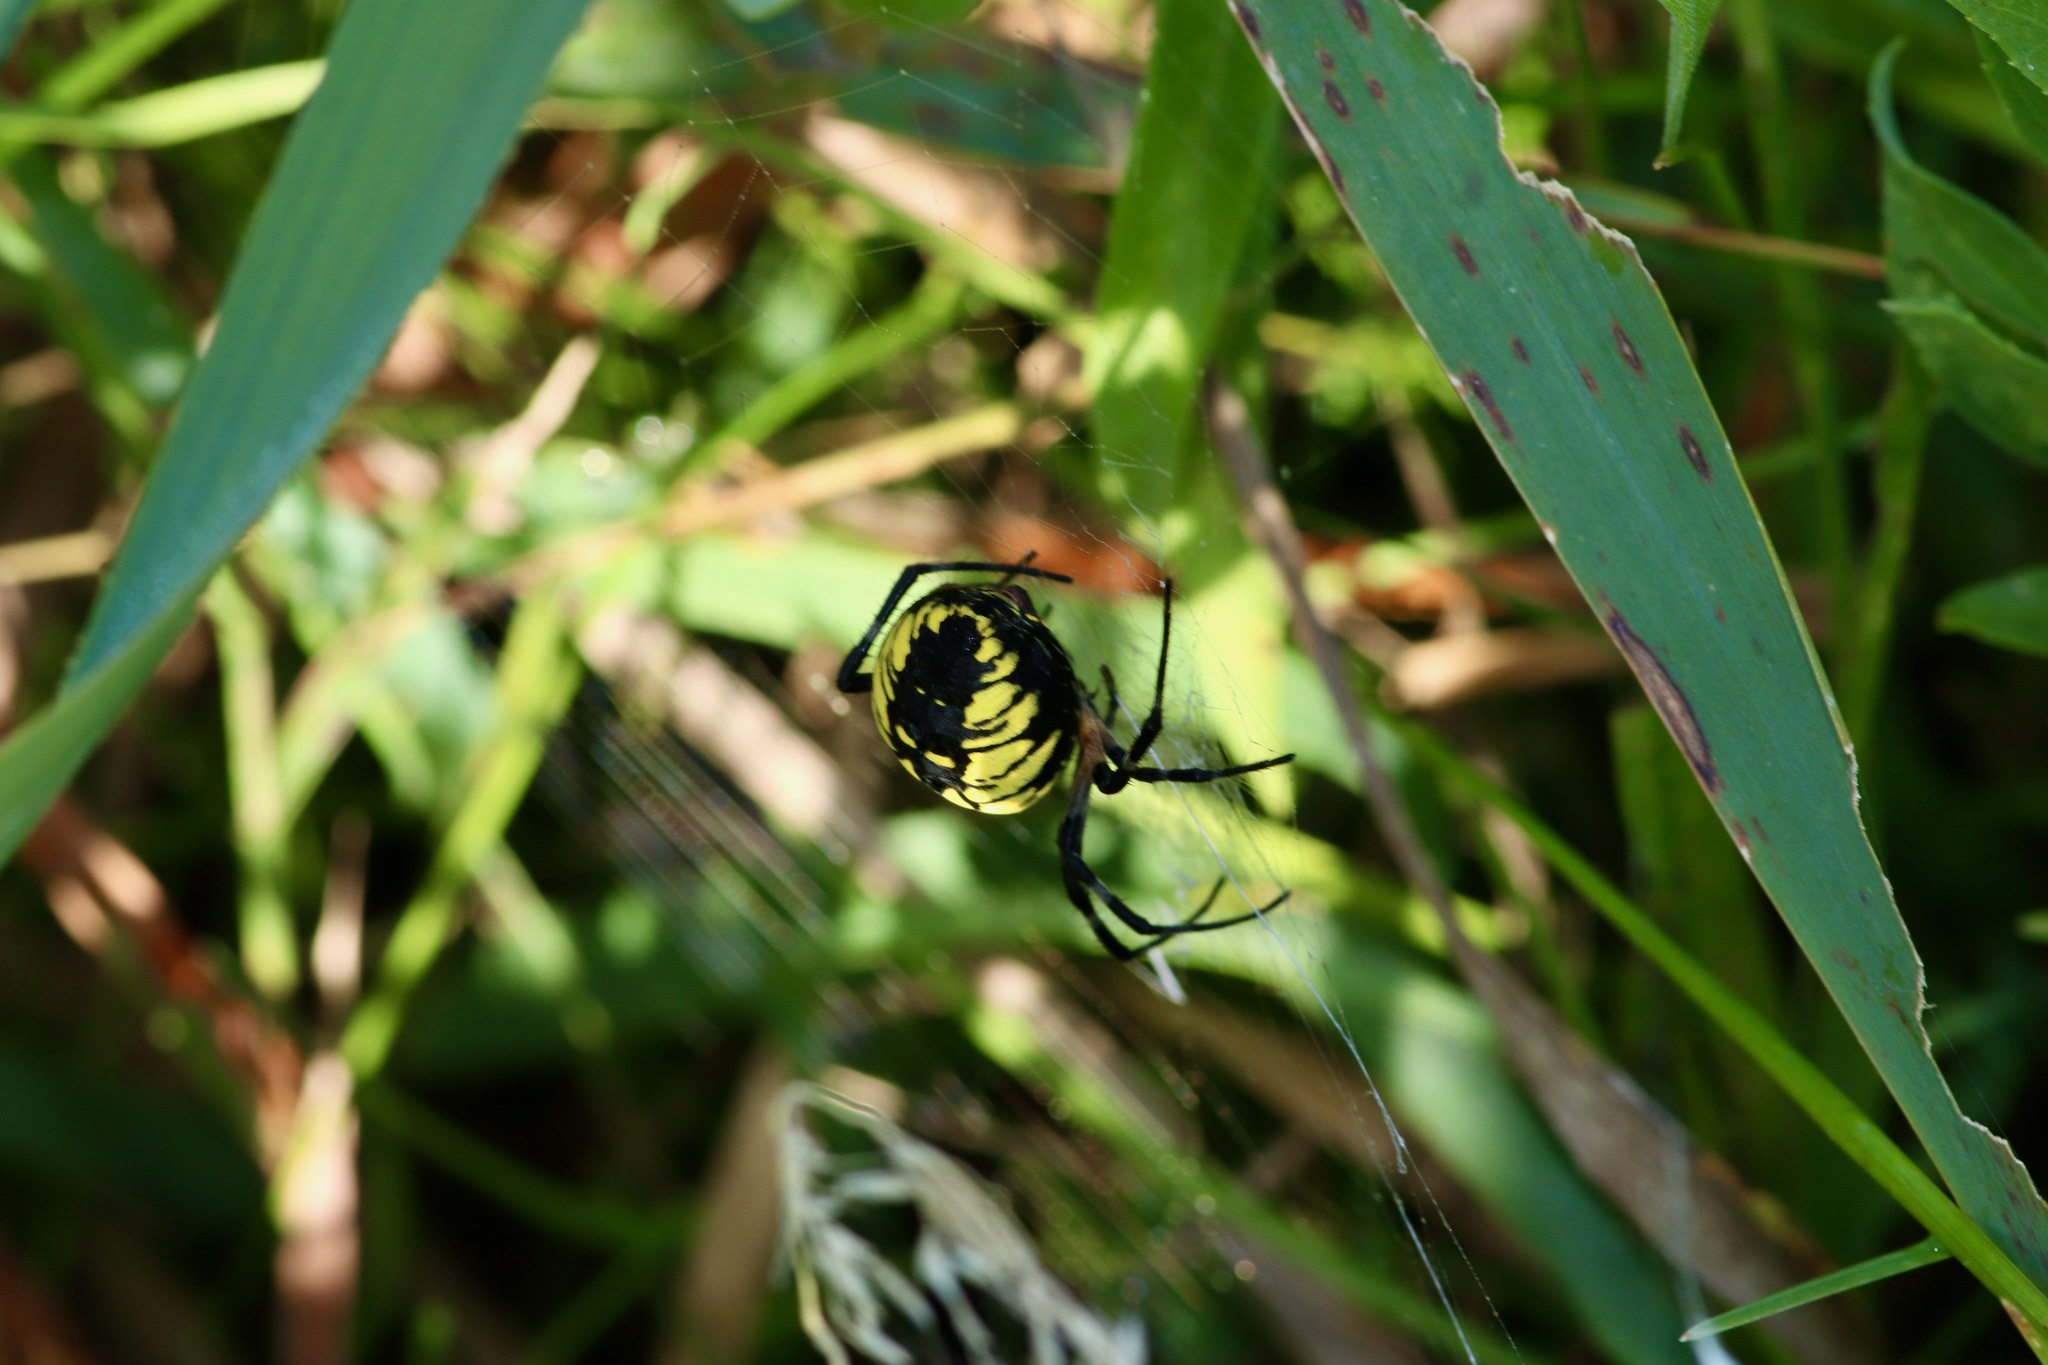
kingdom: Animalia
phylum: Arthropoda
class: Arachnida
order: Araneae
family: Araneidae
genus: Argiope
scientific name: Argiope aurantia
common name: Orb weavers
